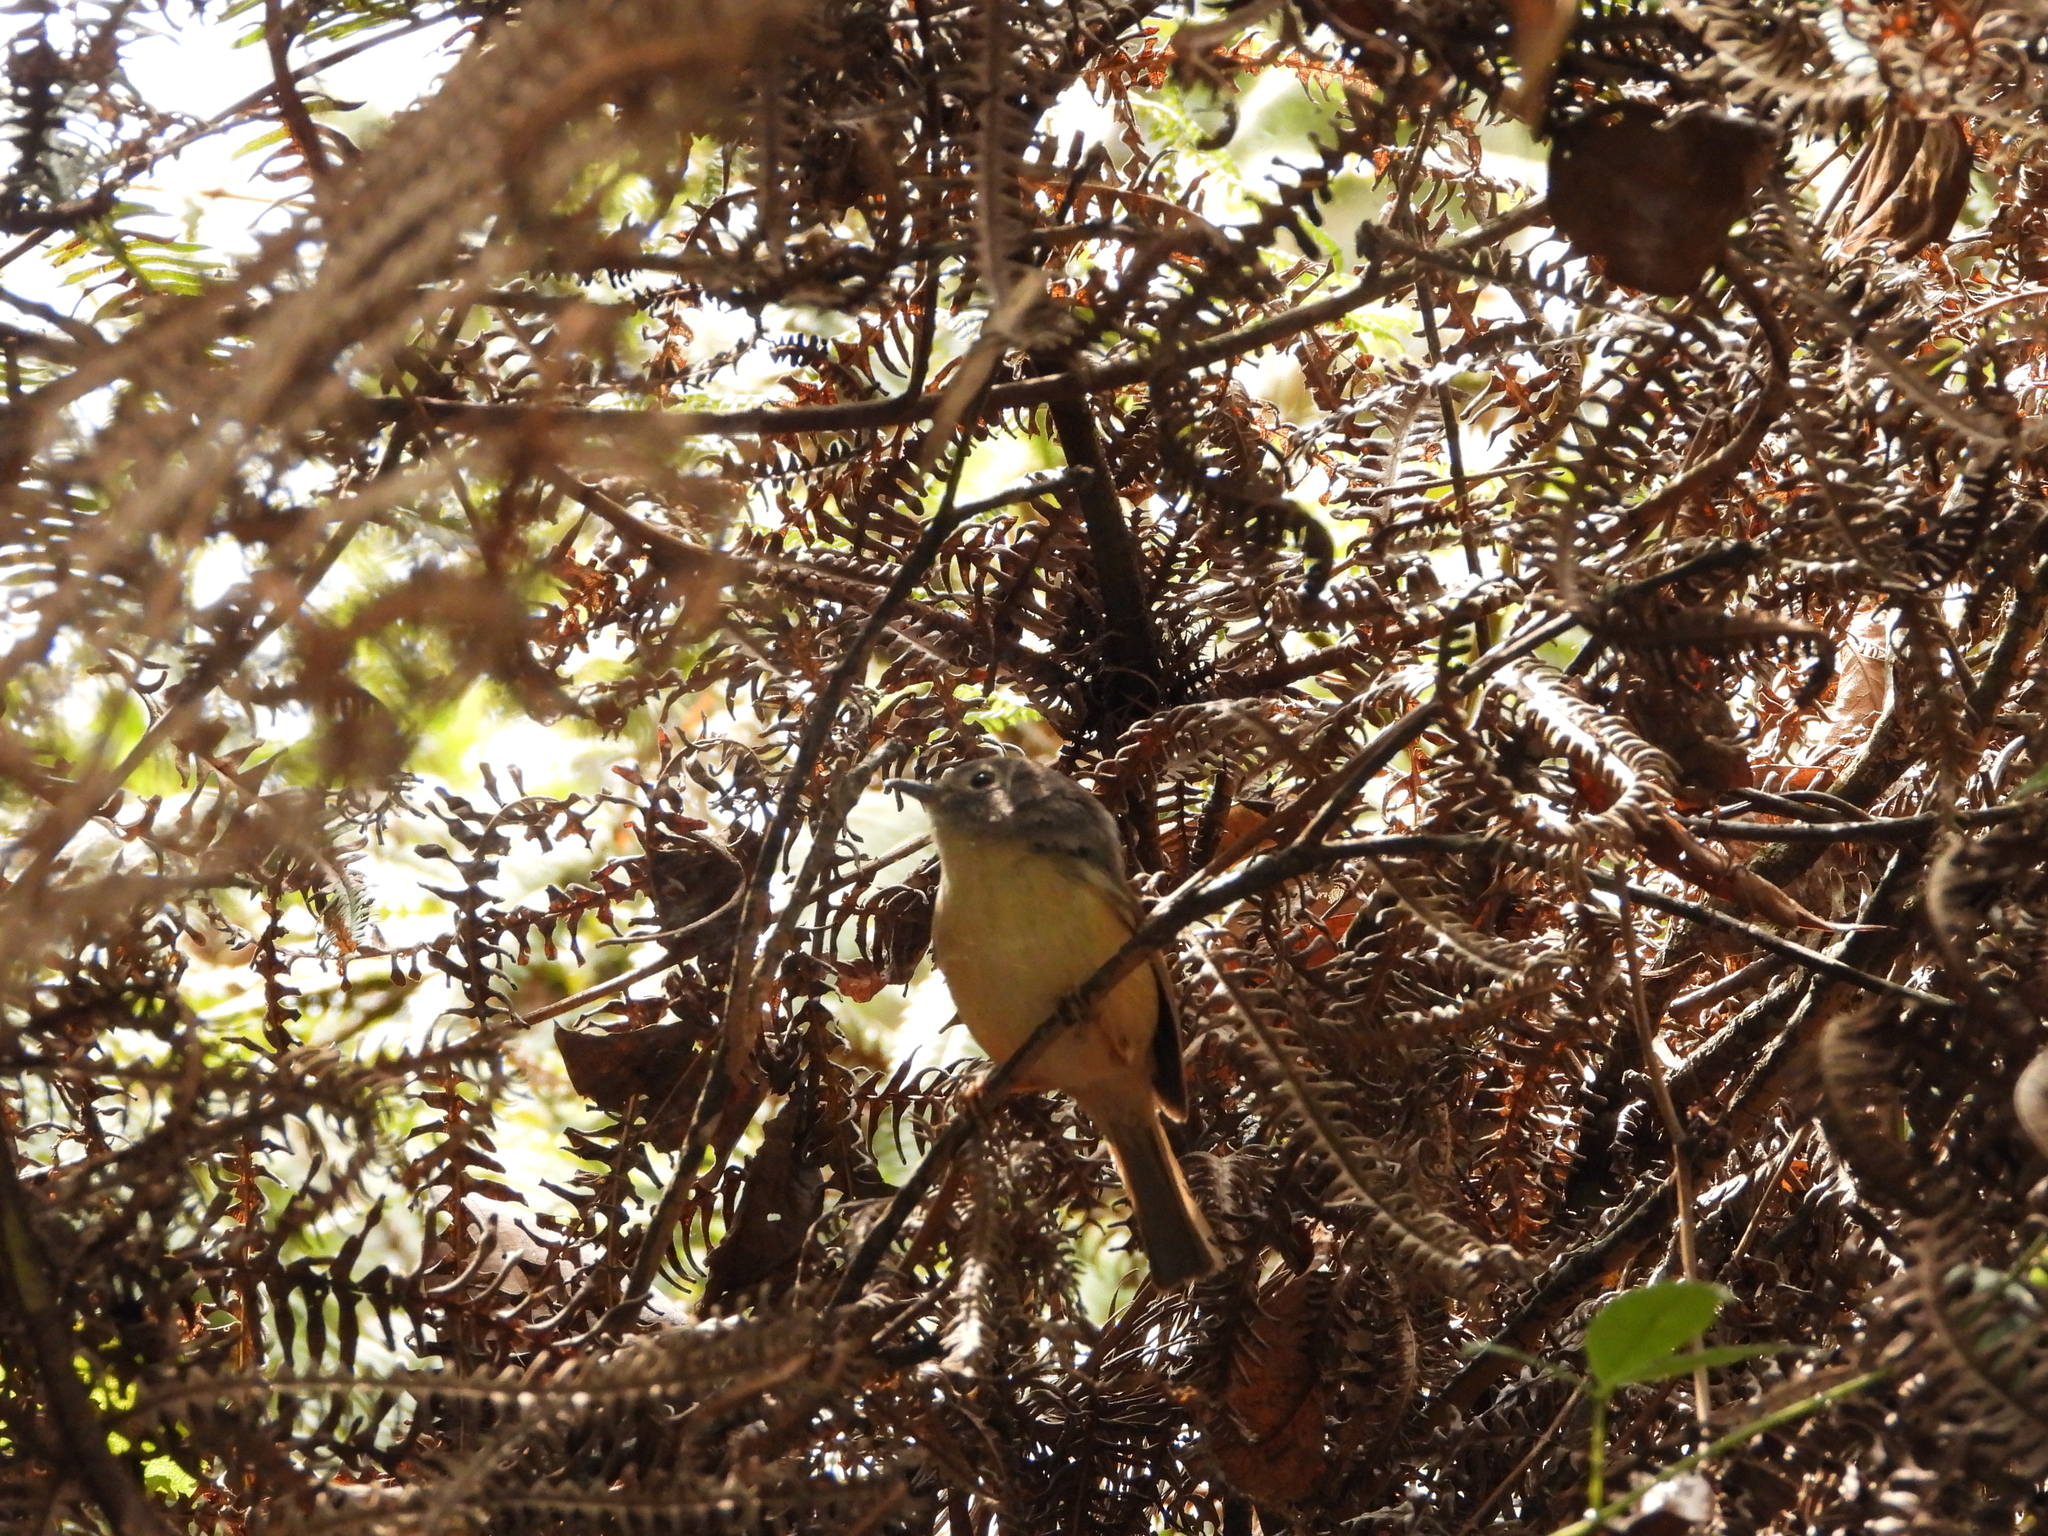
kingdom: Animalia
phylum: Chordata
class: Aves
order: Passeriformes
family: Pellorneidae
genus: Alcippe
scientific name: Alcippe morrisonia
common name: Grey-cheeked fulvetta
